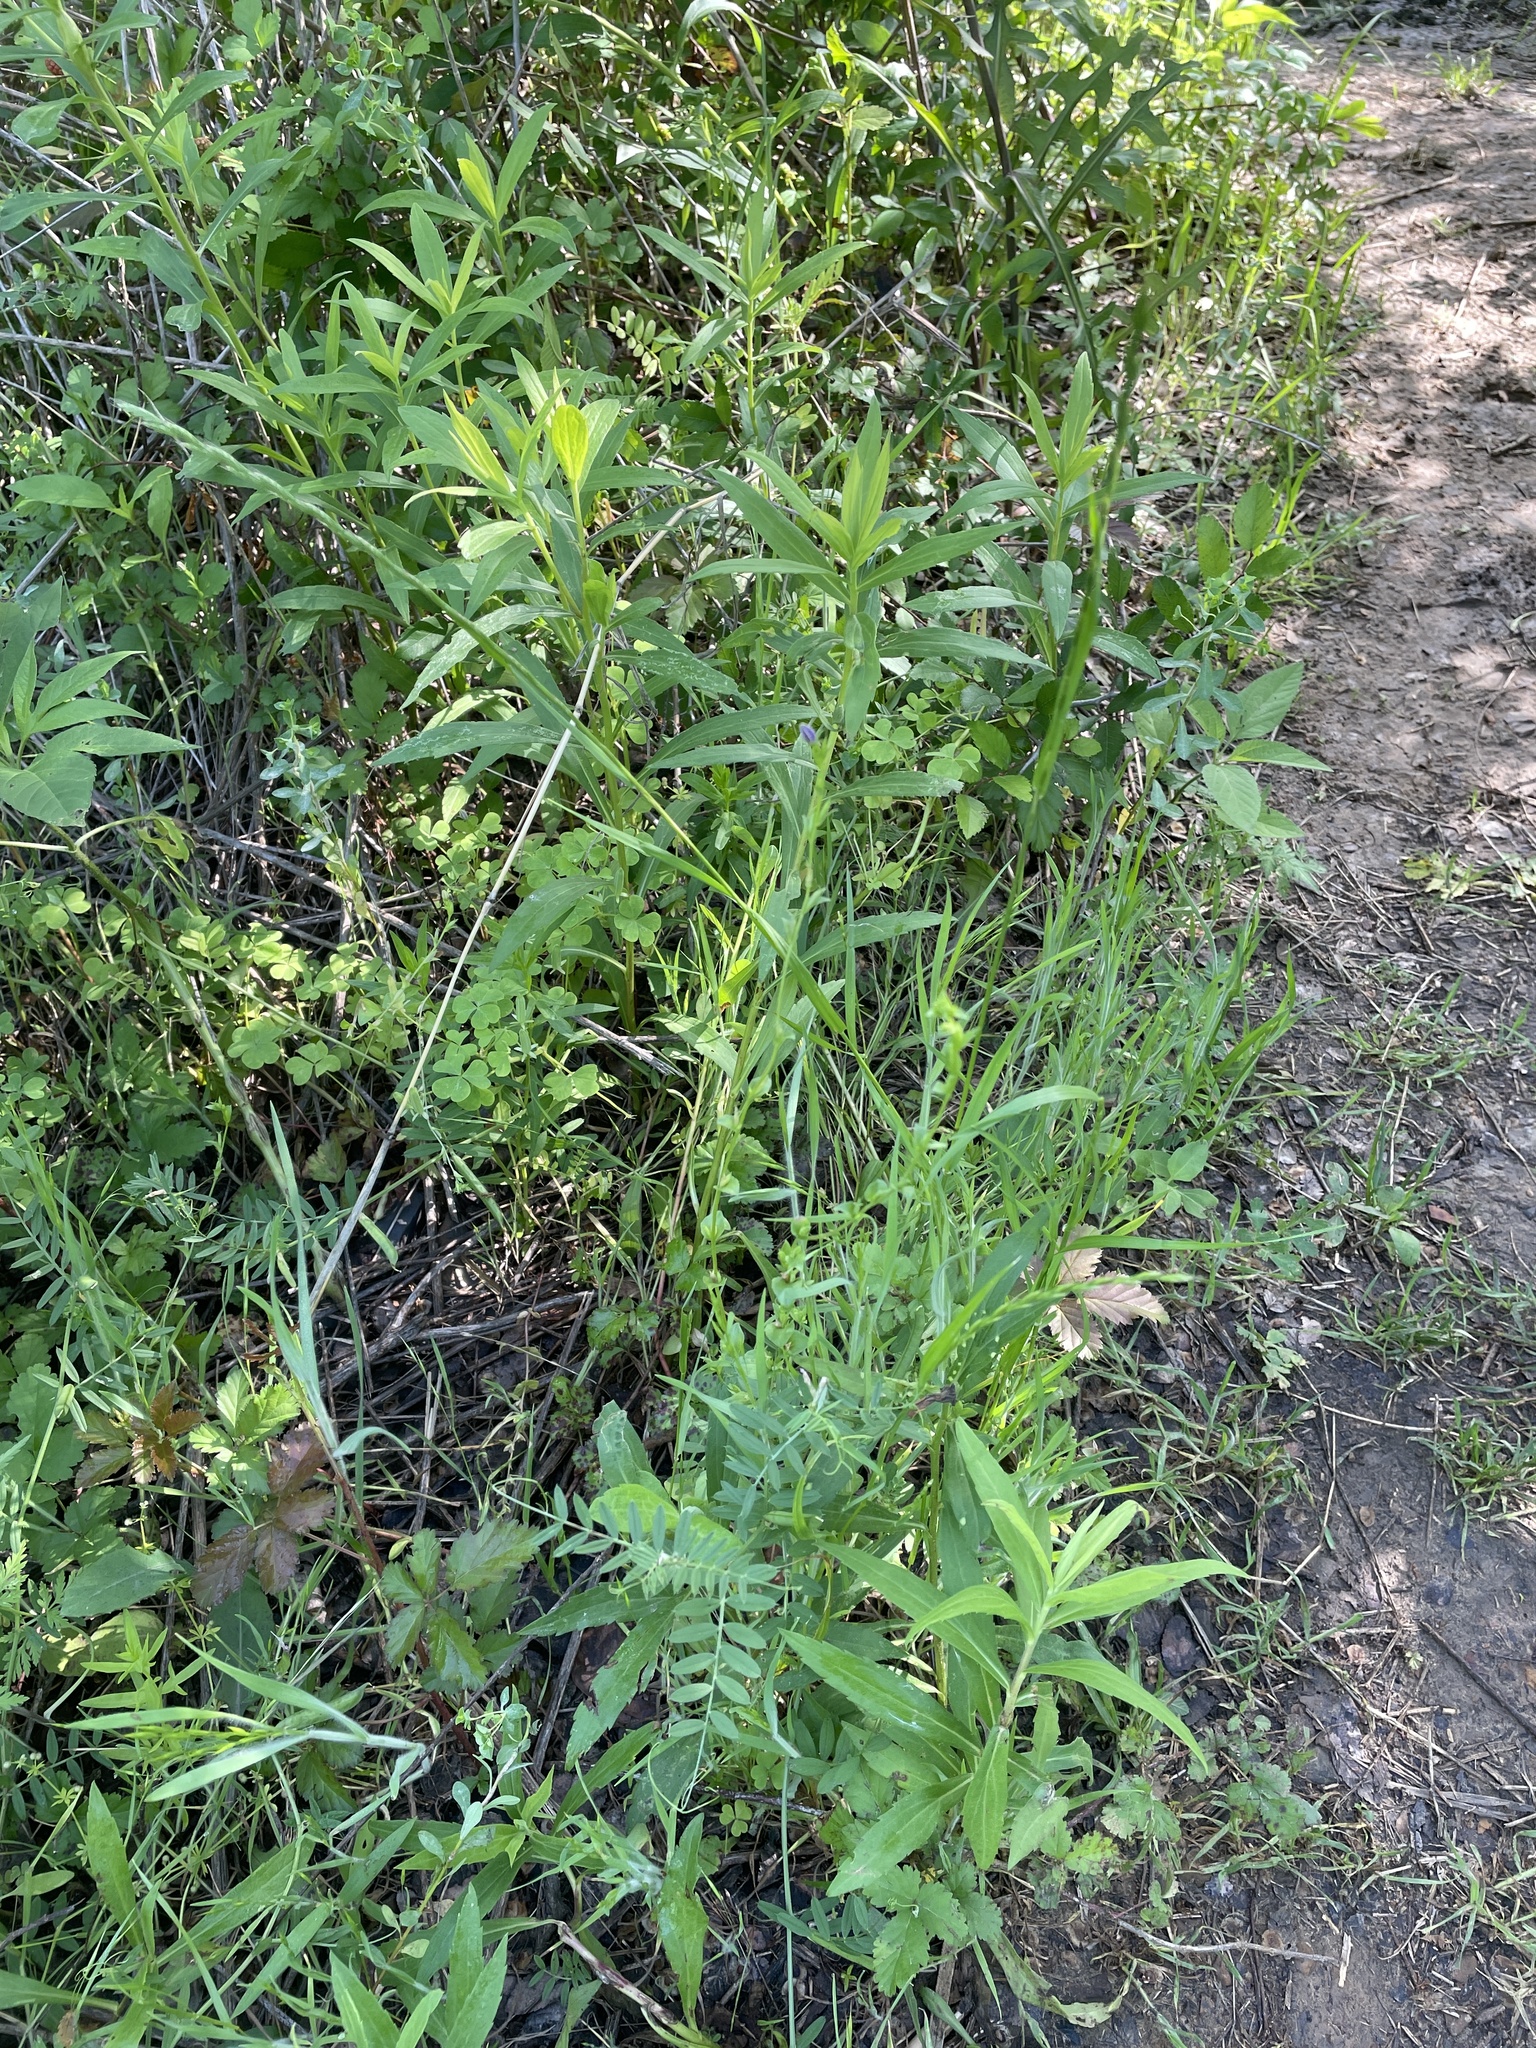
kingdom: Plantae
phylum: Tracheophyta
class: Magnoliopsida
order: Asterales
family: Campanulaceae
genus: Triodanis
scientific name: Triodanis biflora
